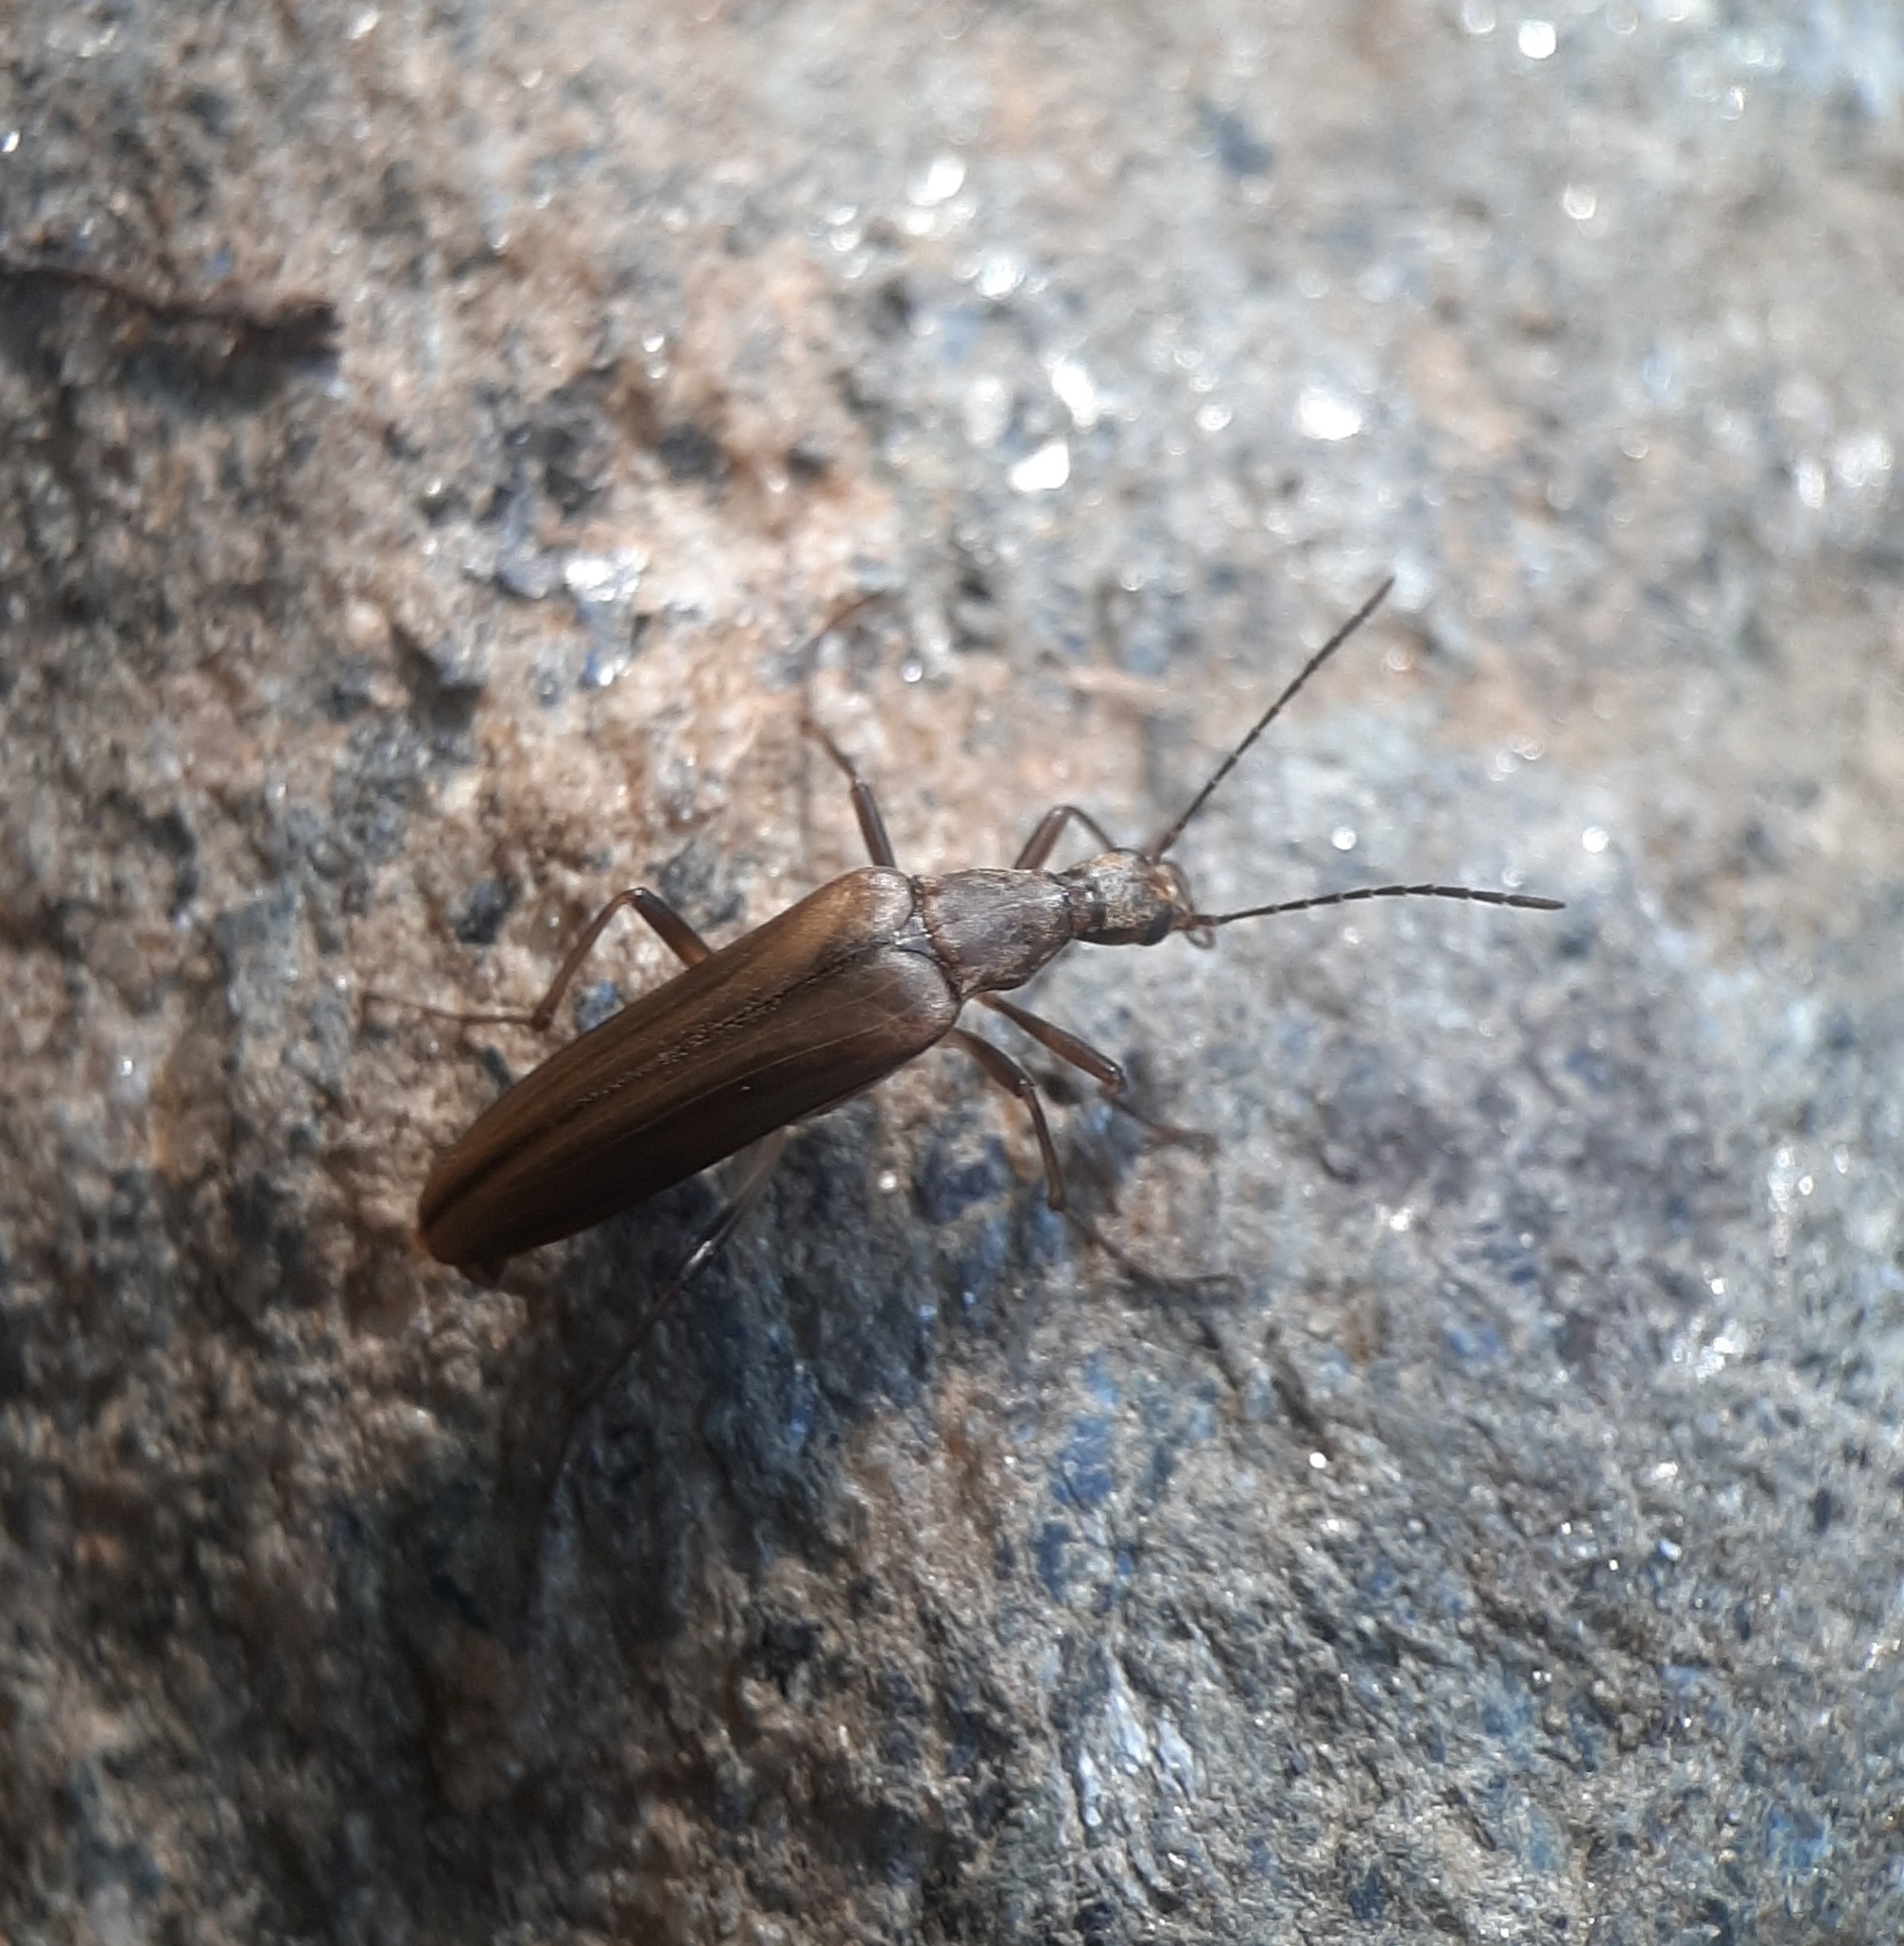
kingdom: Animalia
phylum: Arthropoda
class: Insecta
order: Coleoptera
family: Stenotrachelidae
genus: Cephaloon
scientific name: Cephaloon ungulare
